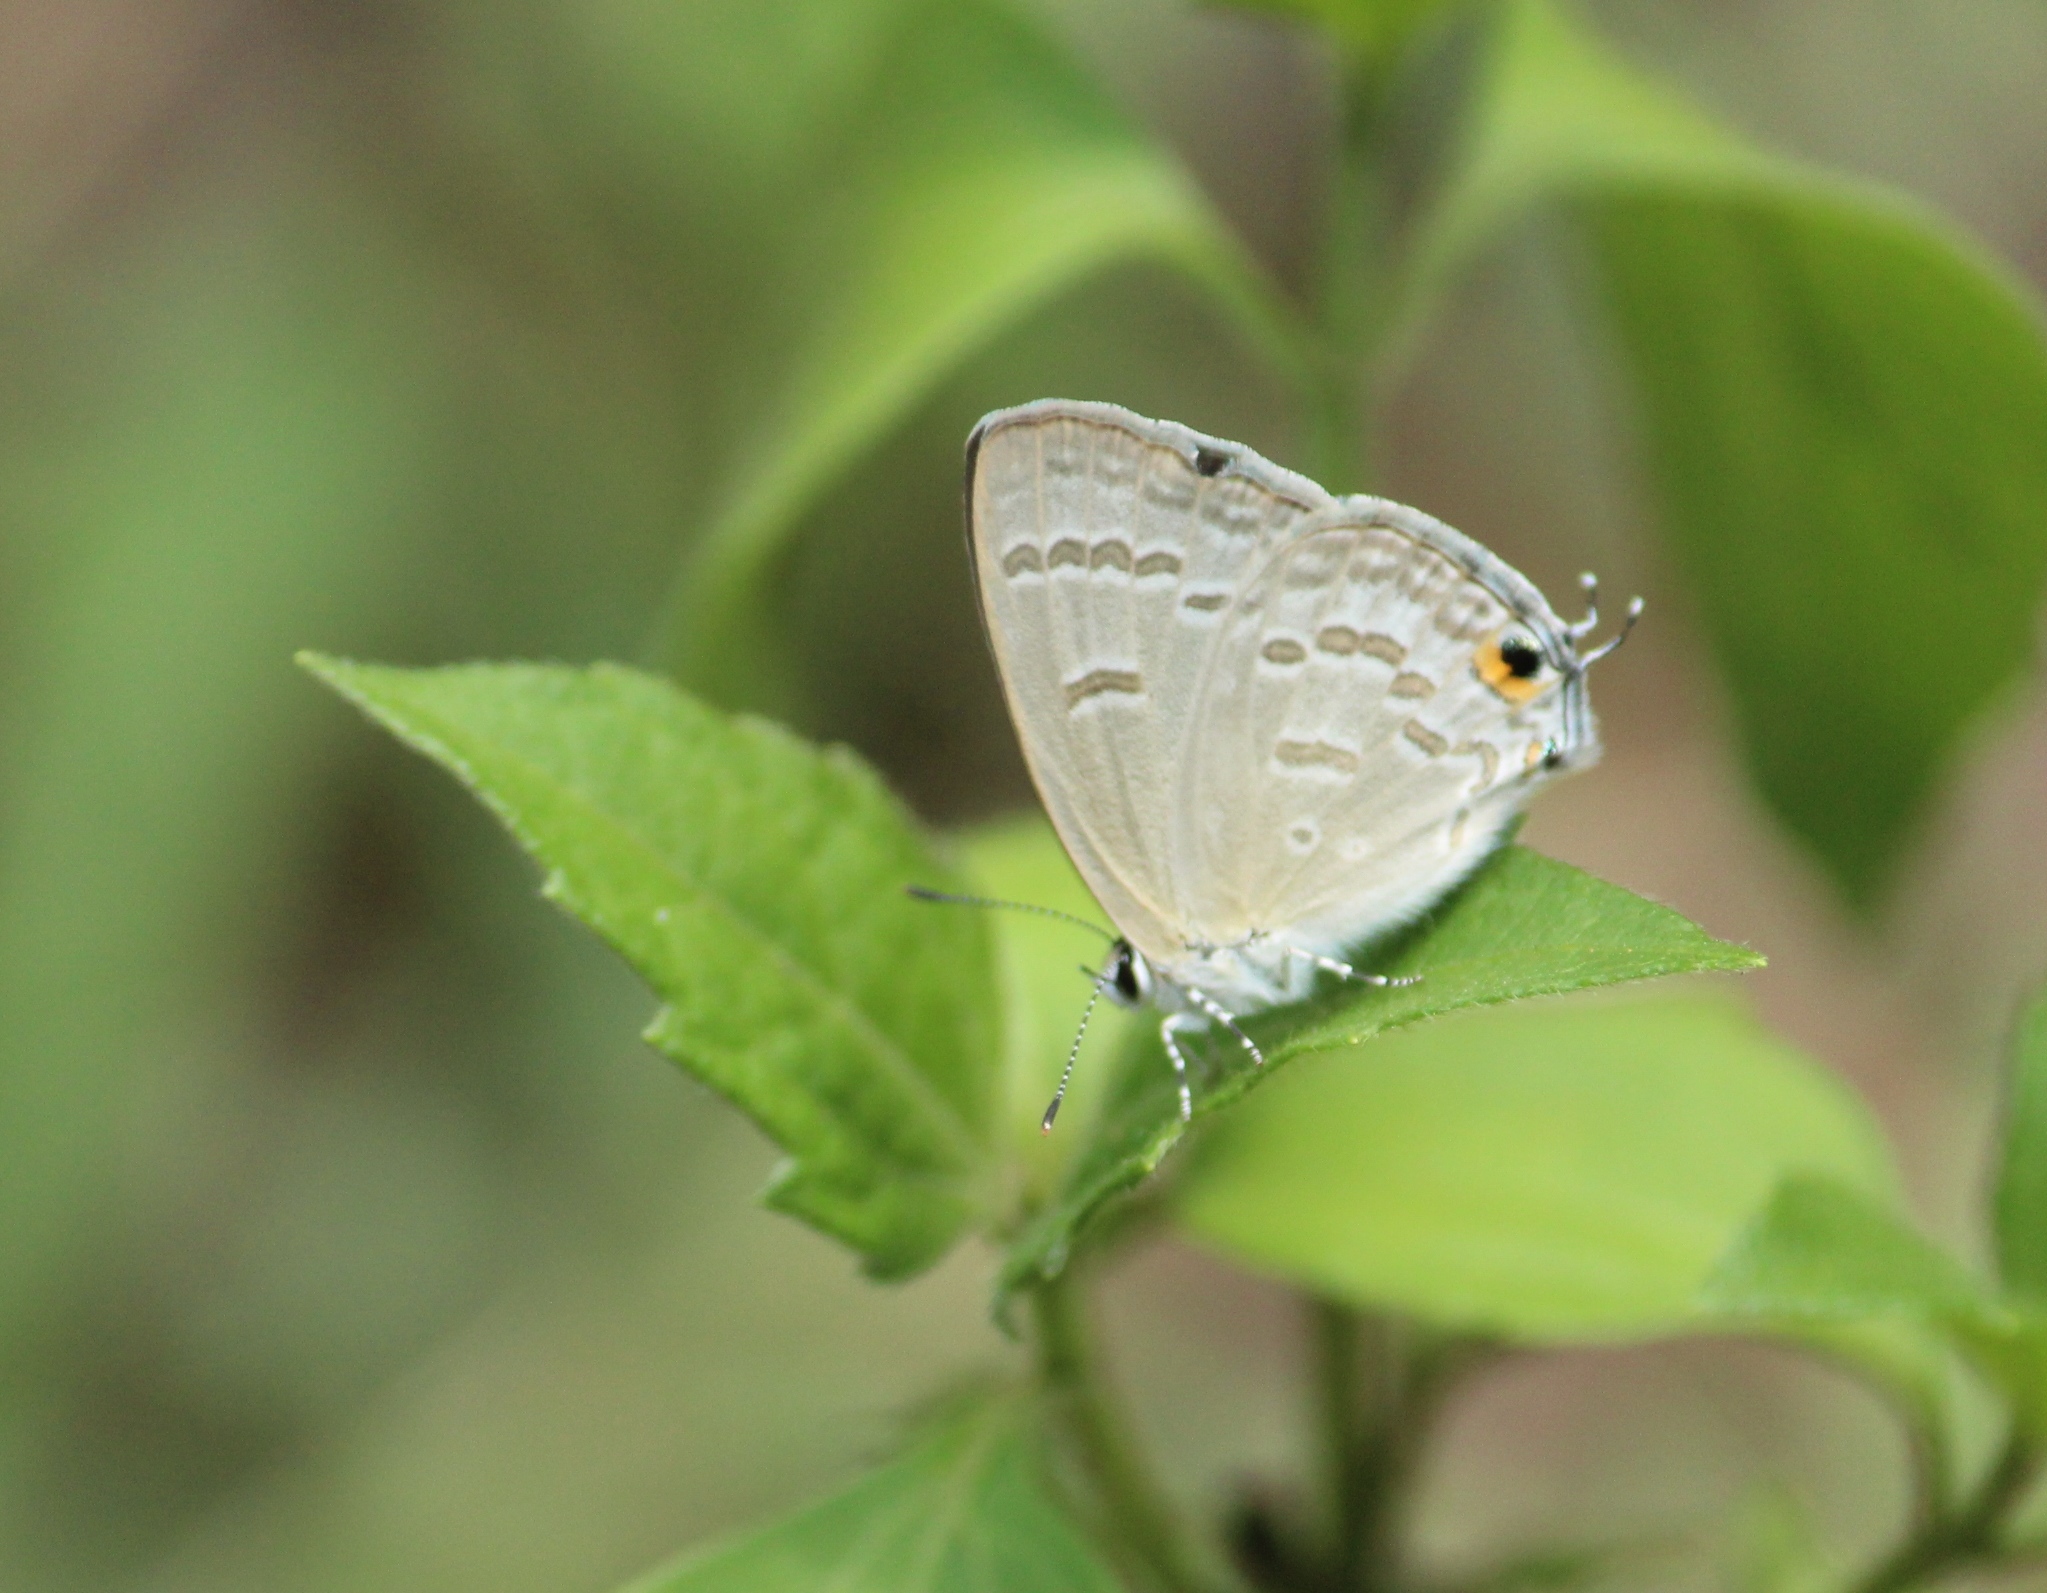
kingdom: Animalia
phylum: Arthropoda
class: Insecta
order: Lepidoptera
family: Lycaenidae
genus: Catochrysops
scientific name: Catochrysops strabo
